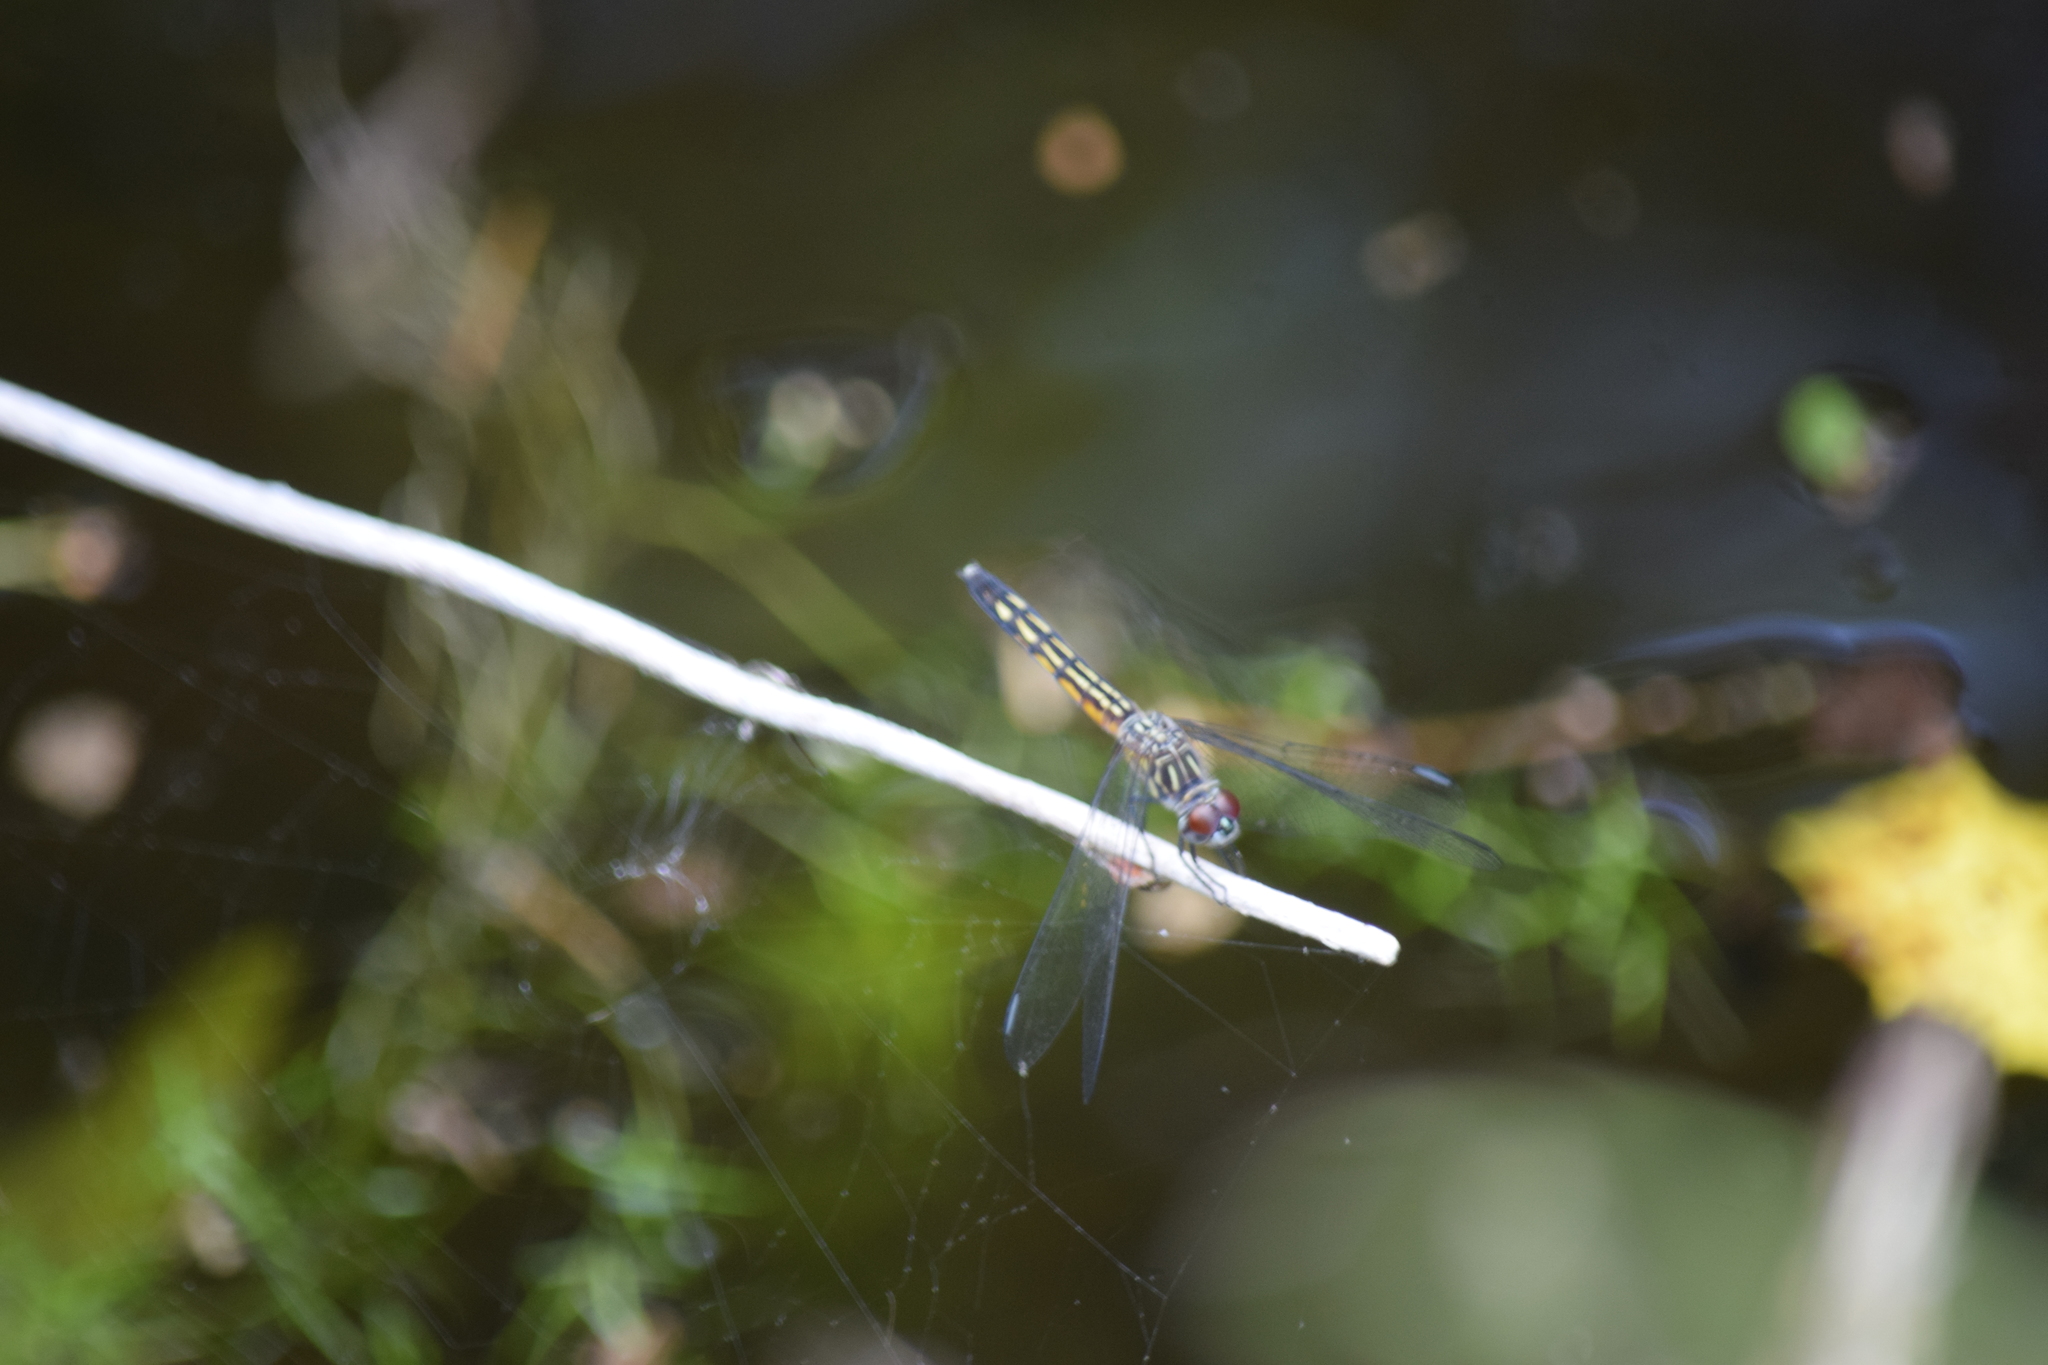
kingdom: Animalia
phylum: Arthropoda
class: Insecta
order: Odonata
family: Libellulidae
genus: Pachydiplax
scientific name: Pachydiplax longipennis
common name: Blue dasher
